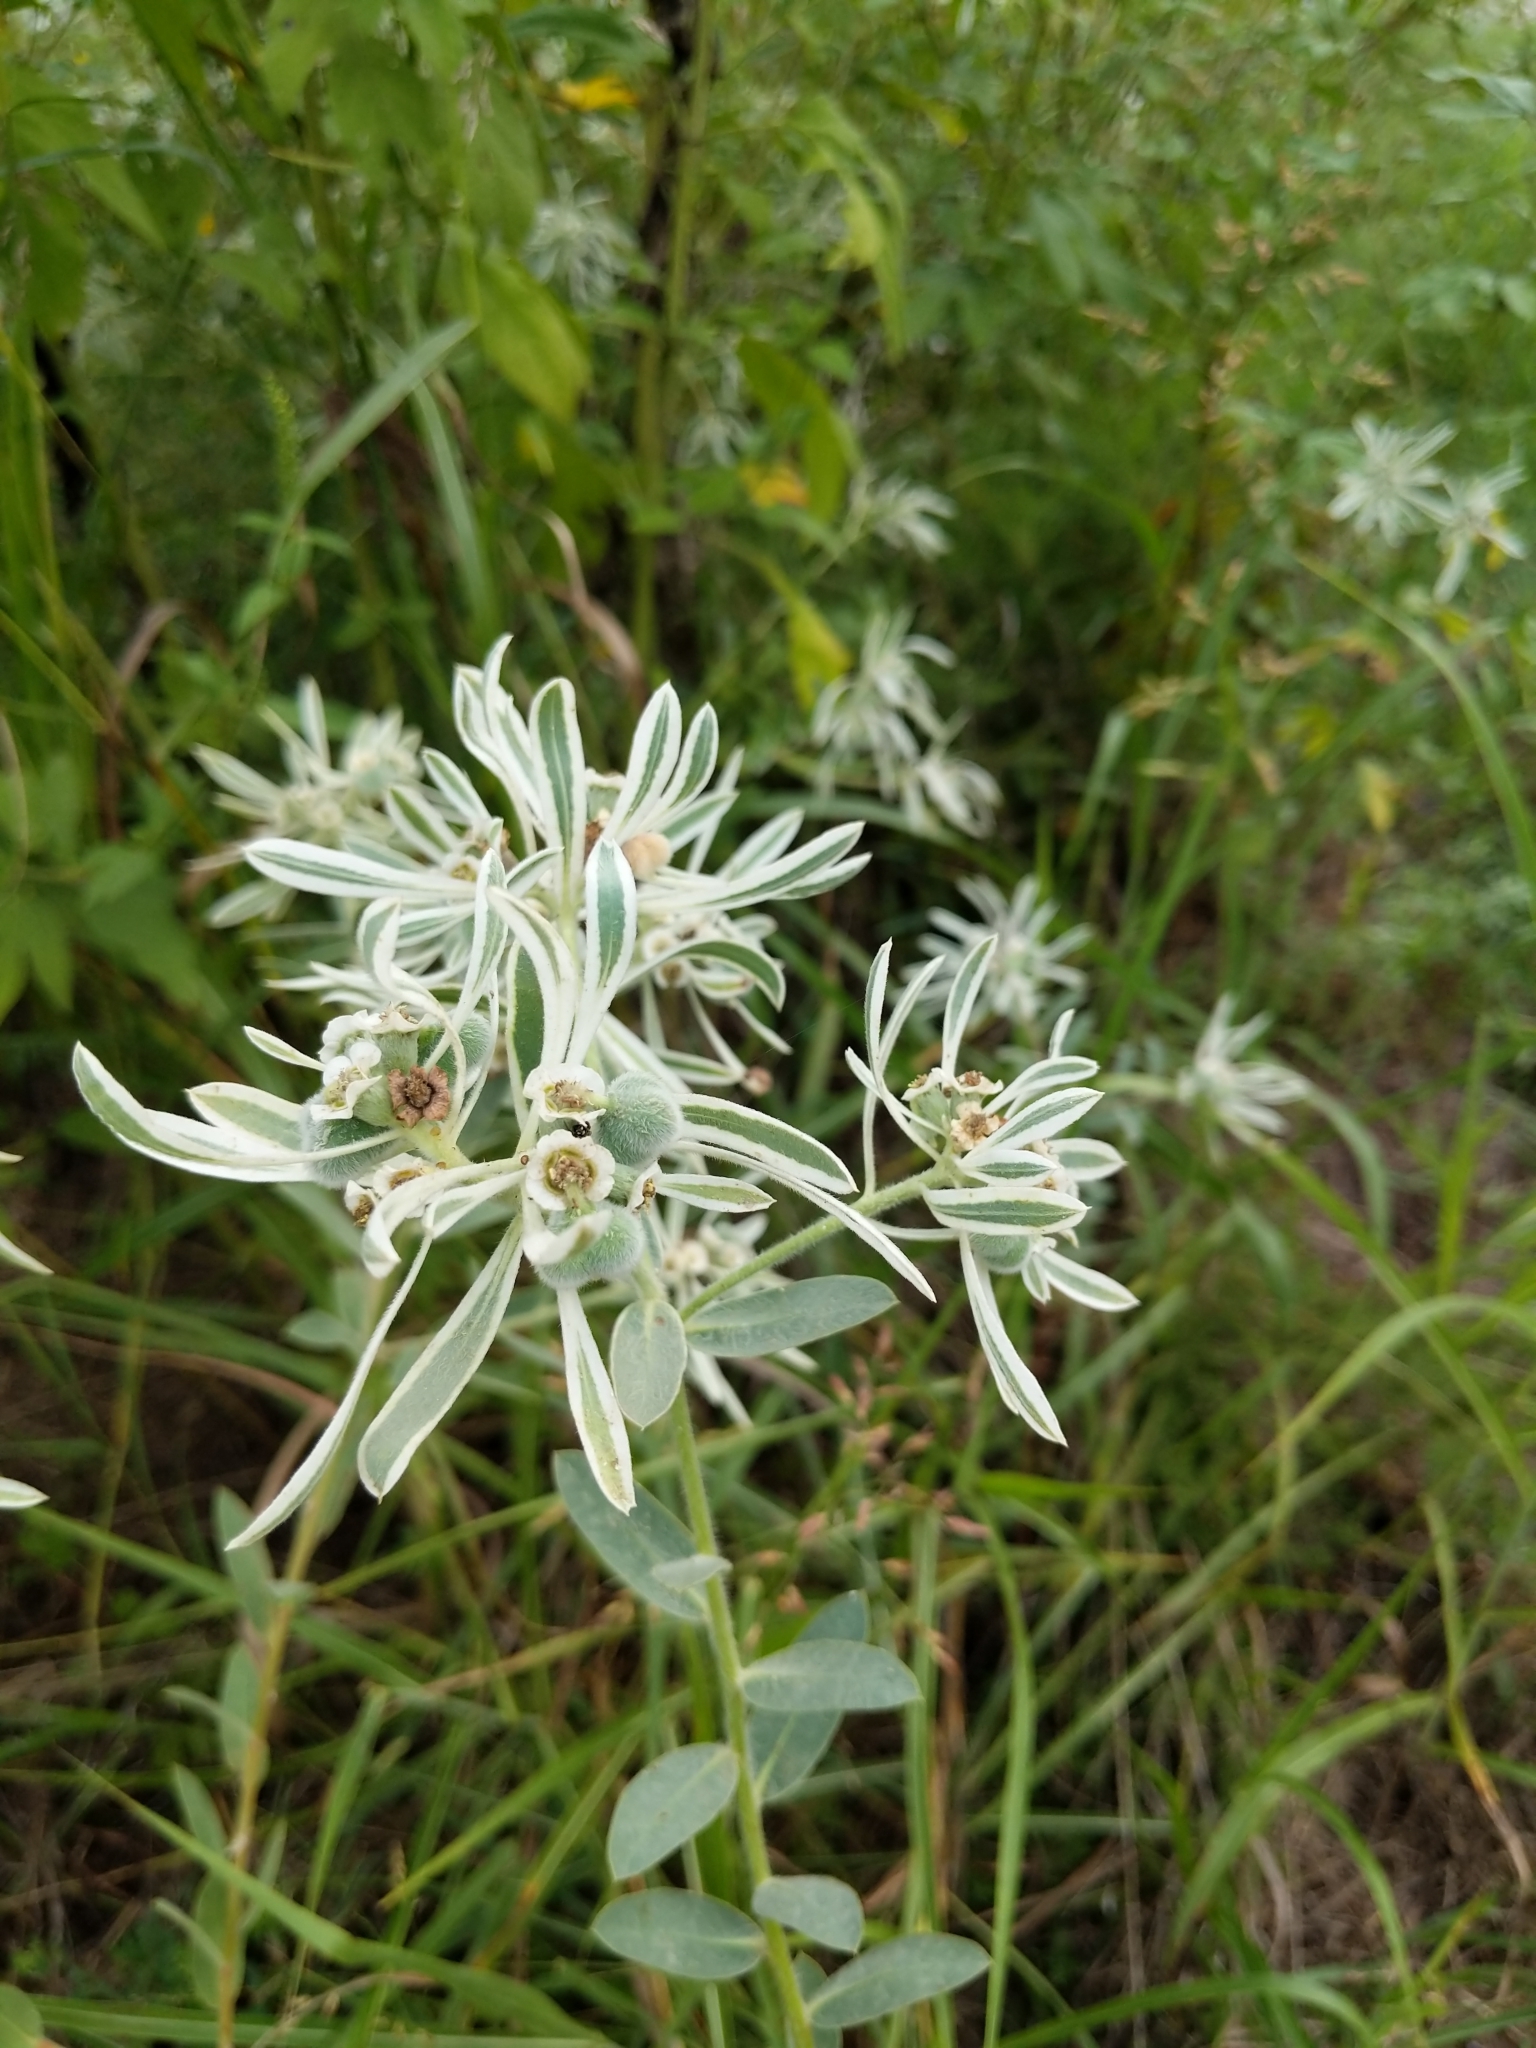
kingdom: Plantae
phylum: Tracheophyta
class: Magnoliopsida
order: Malpighiales
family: Euphorbiaceae
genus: Euphorbia
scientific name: Euphorbia bicolor
